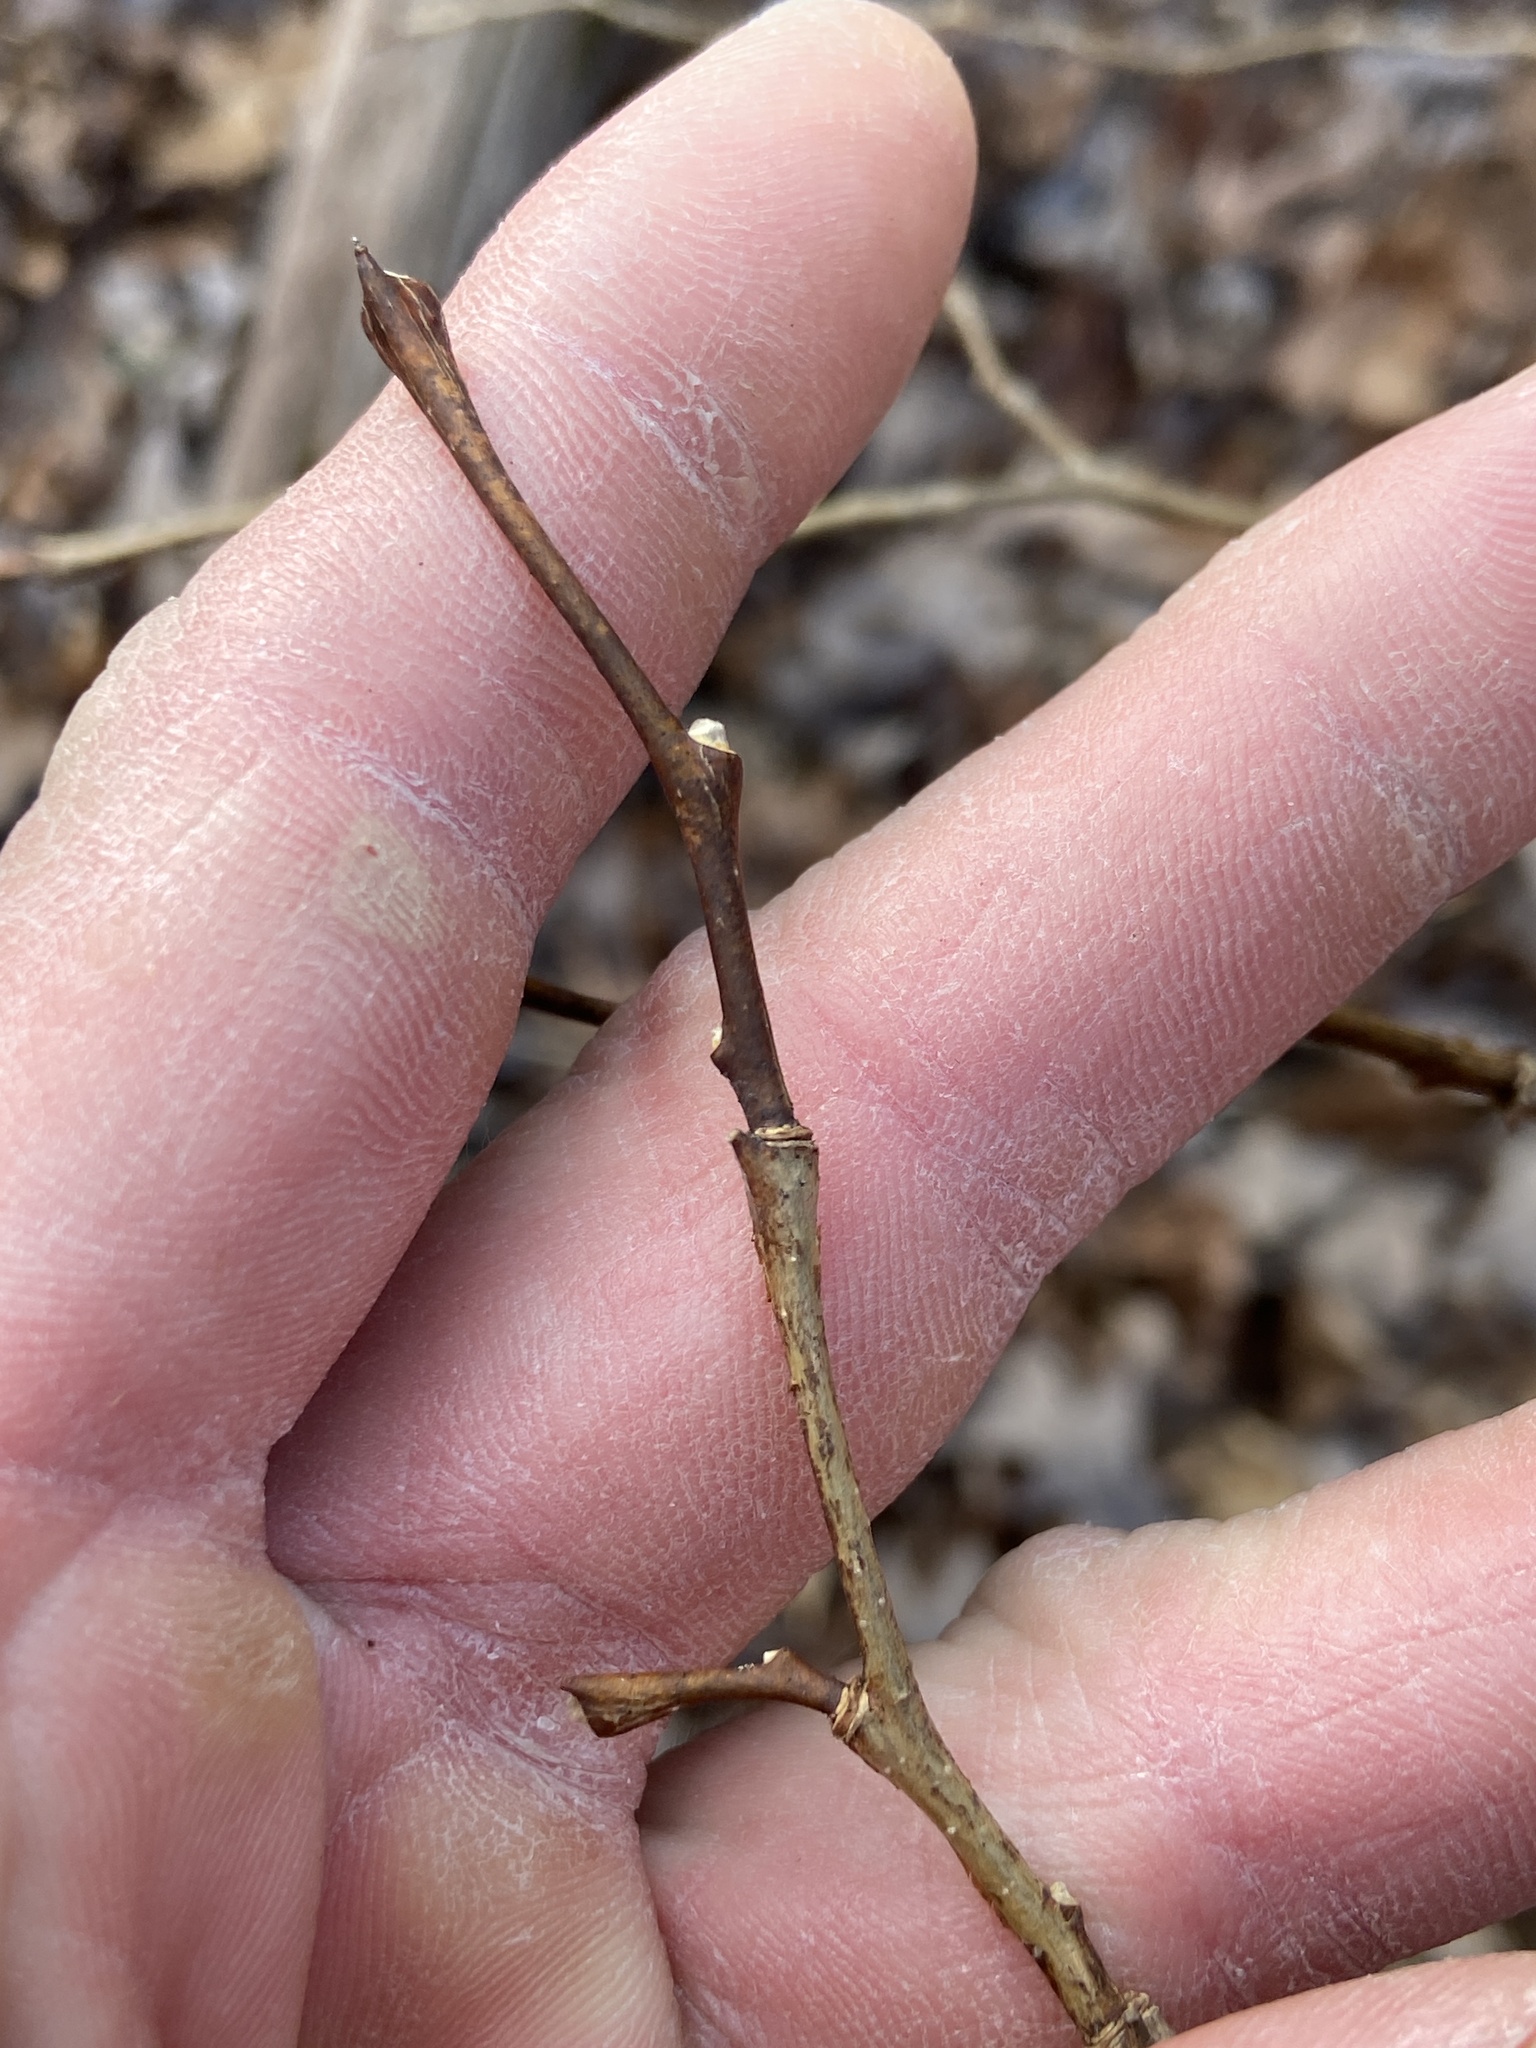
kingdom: Plantae
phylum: Tracheophyta
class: Magnoliopsida
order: Malvales
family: Thymelaeaceae
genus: Dirca
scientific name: Dirca palustris
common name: Leatherwood
